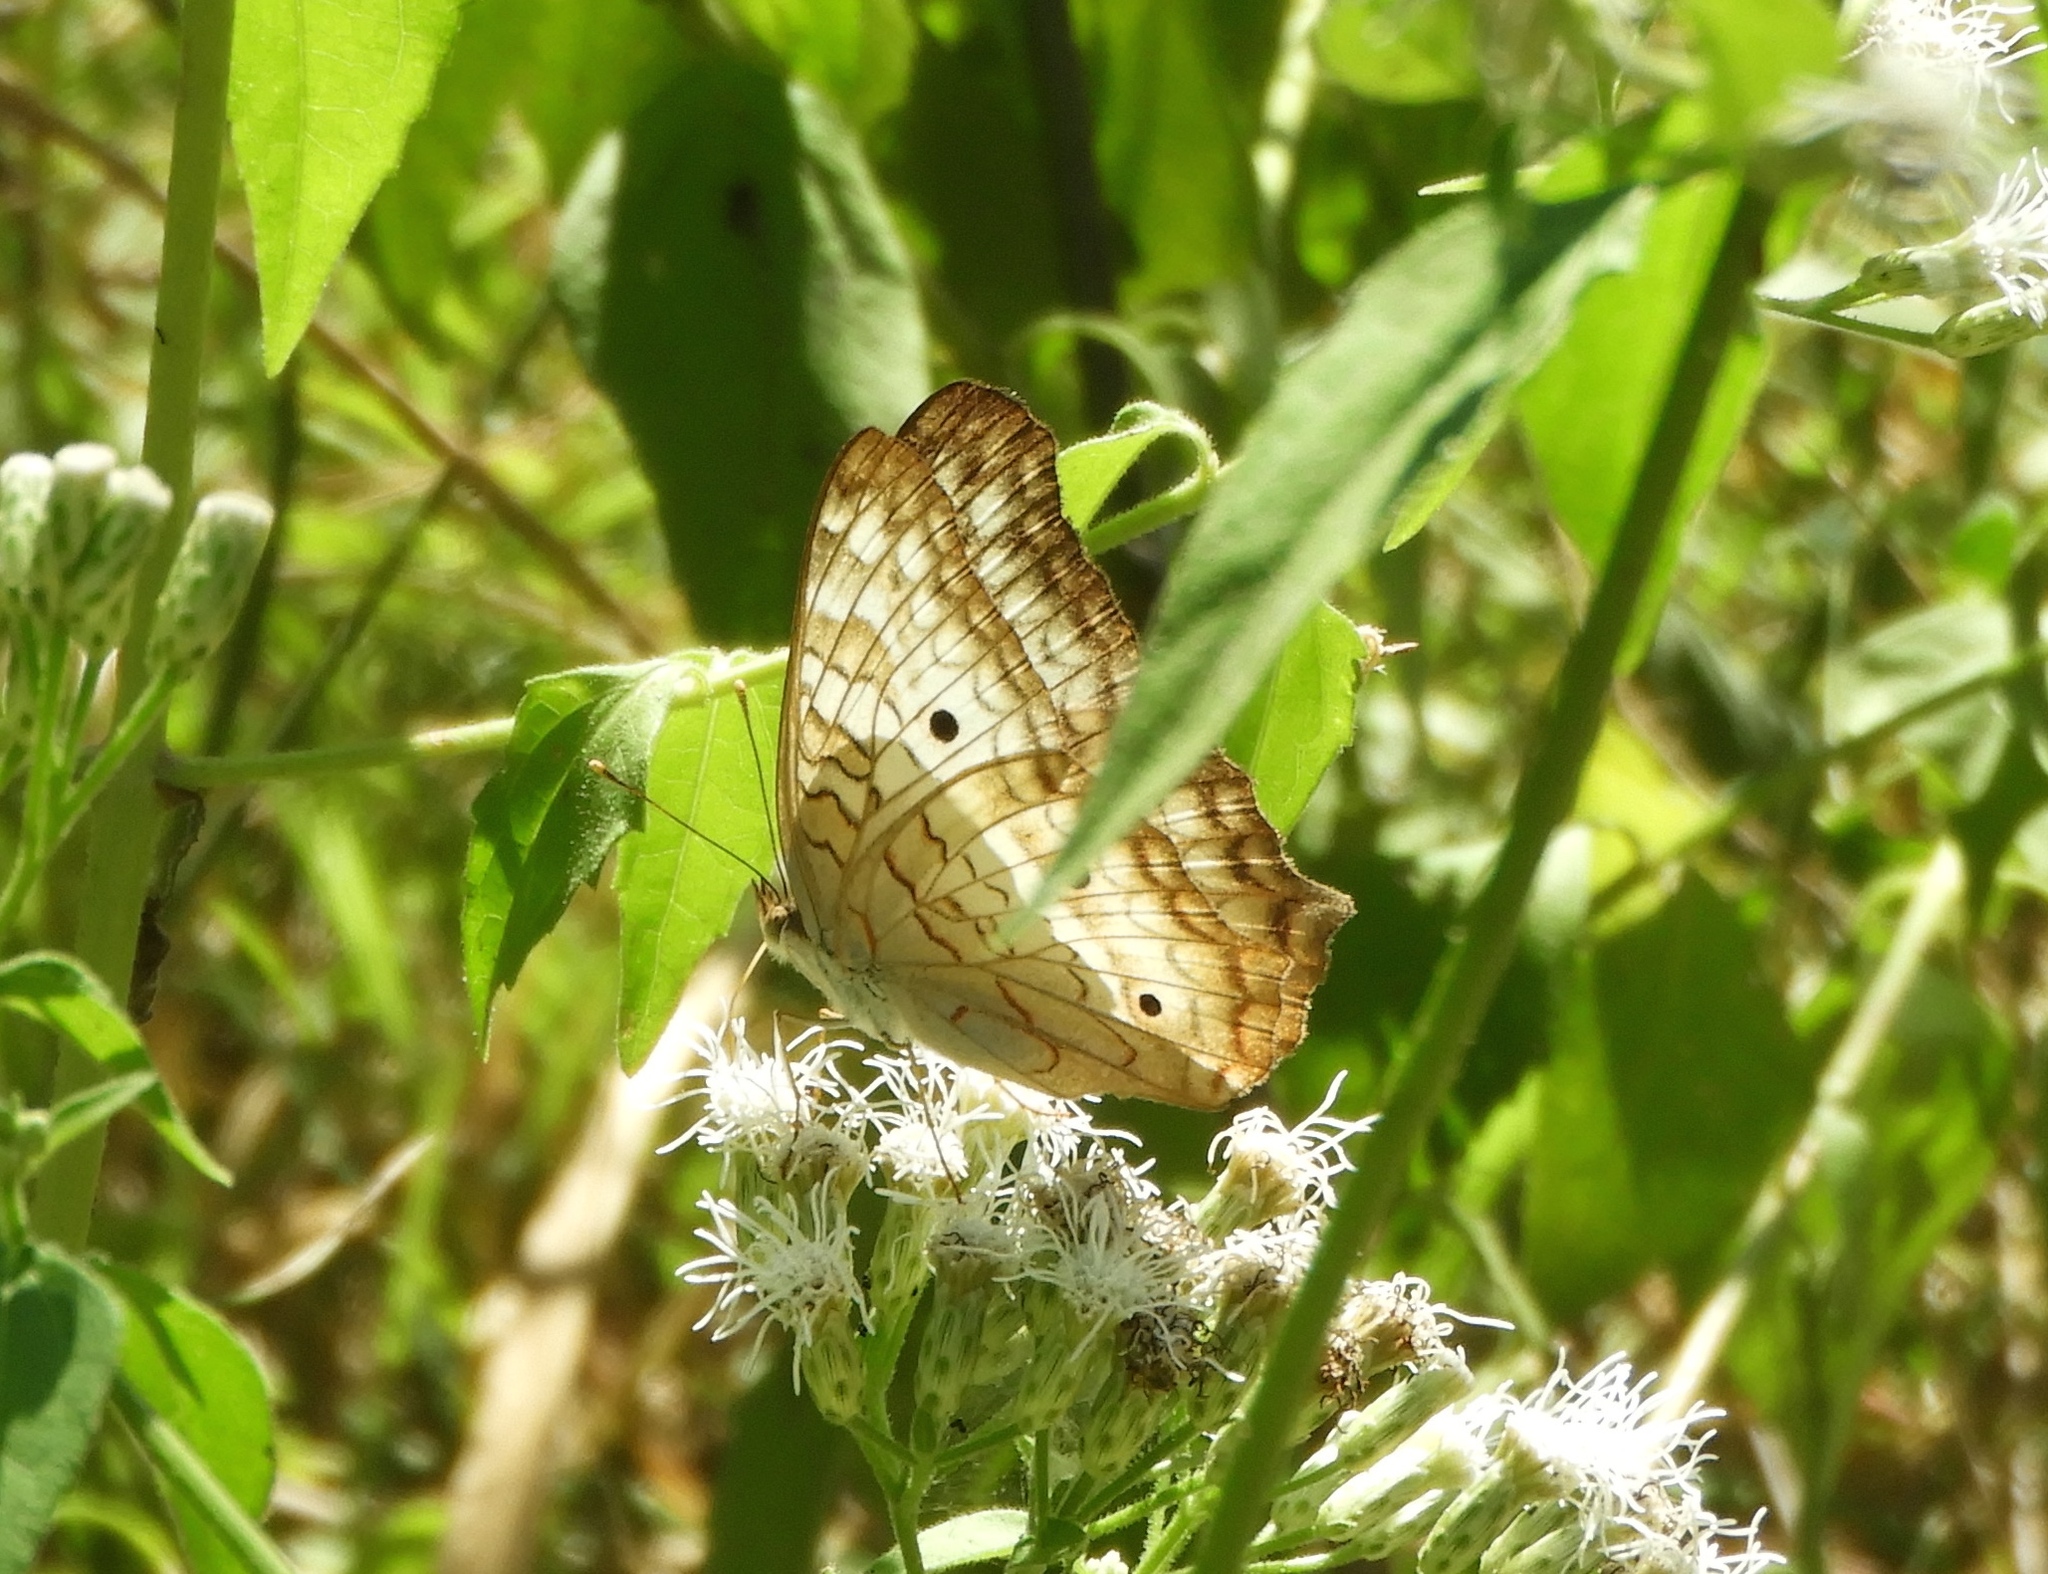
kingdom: Animalia
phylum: Arthropoda
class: Insecta
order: Lepidoptera
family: Nymphalidae
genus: Anartia
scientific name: Anartia jatrophae
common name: White peacock
